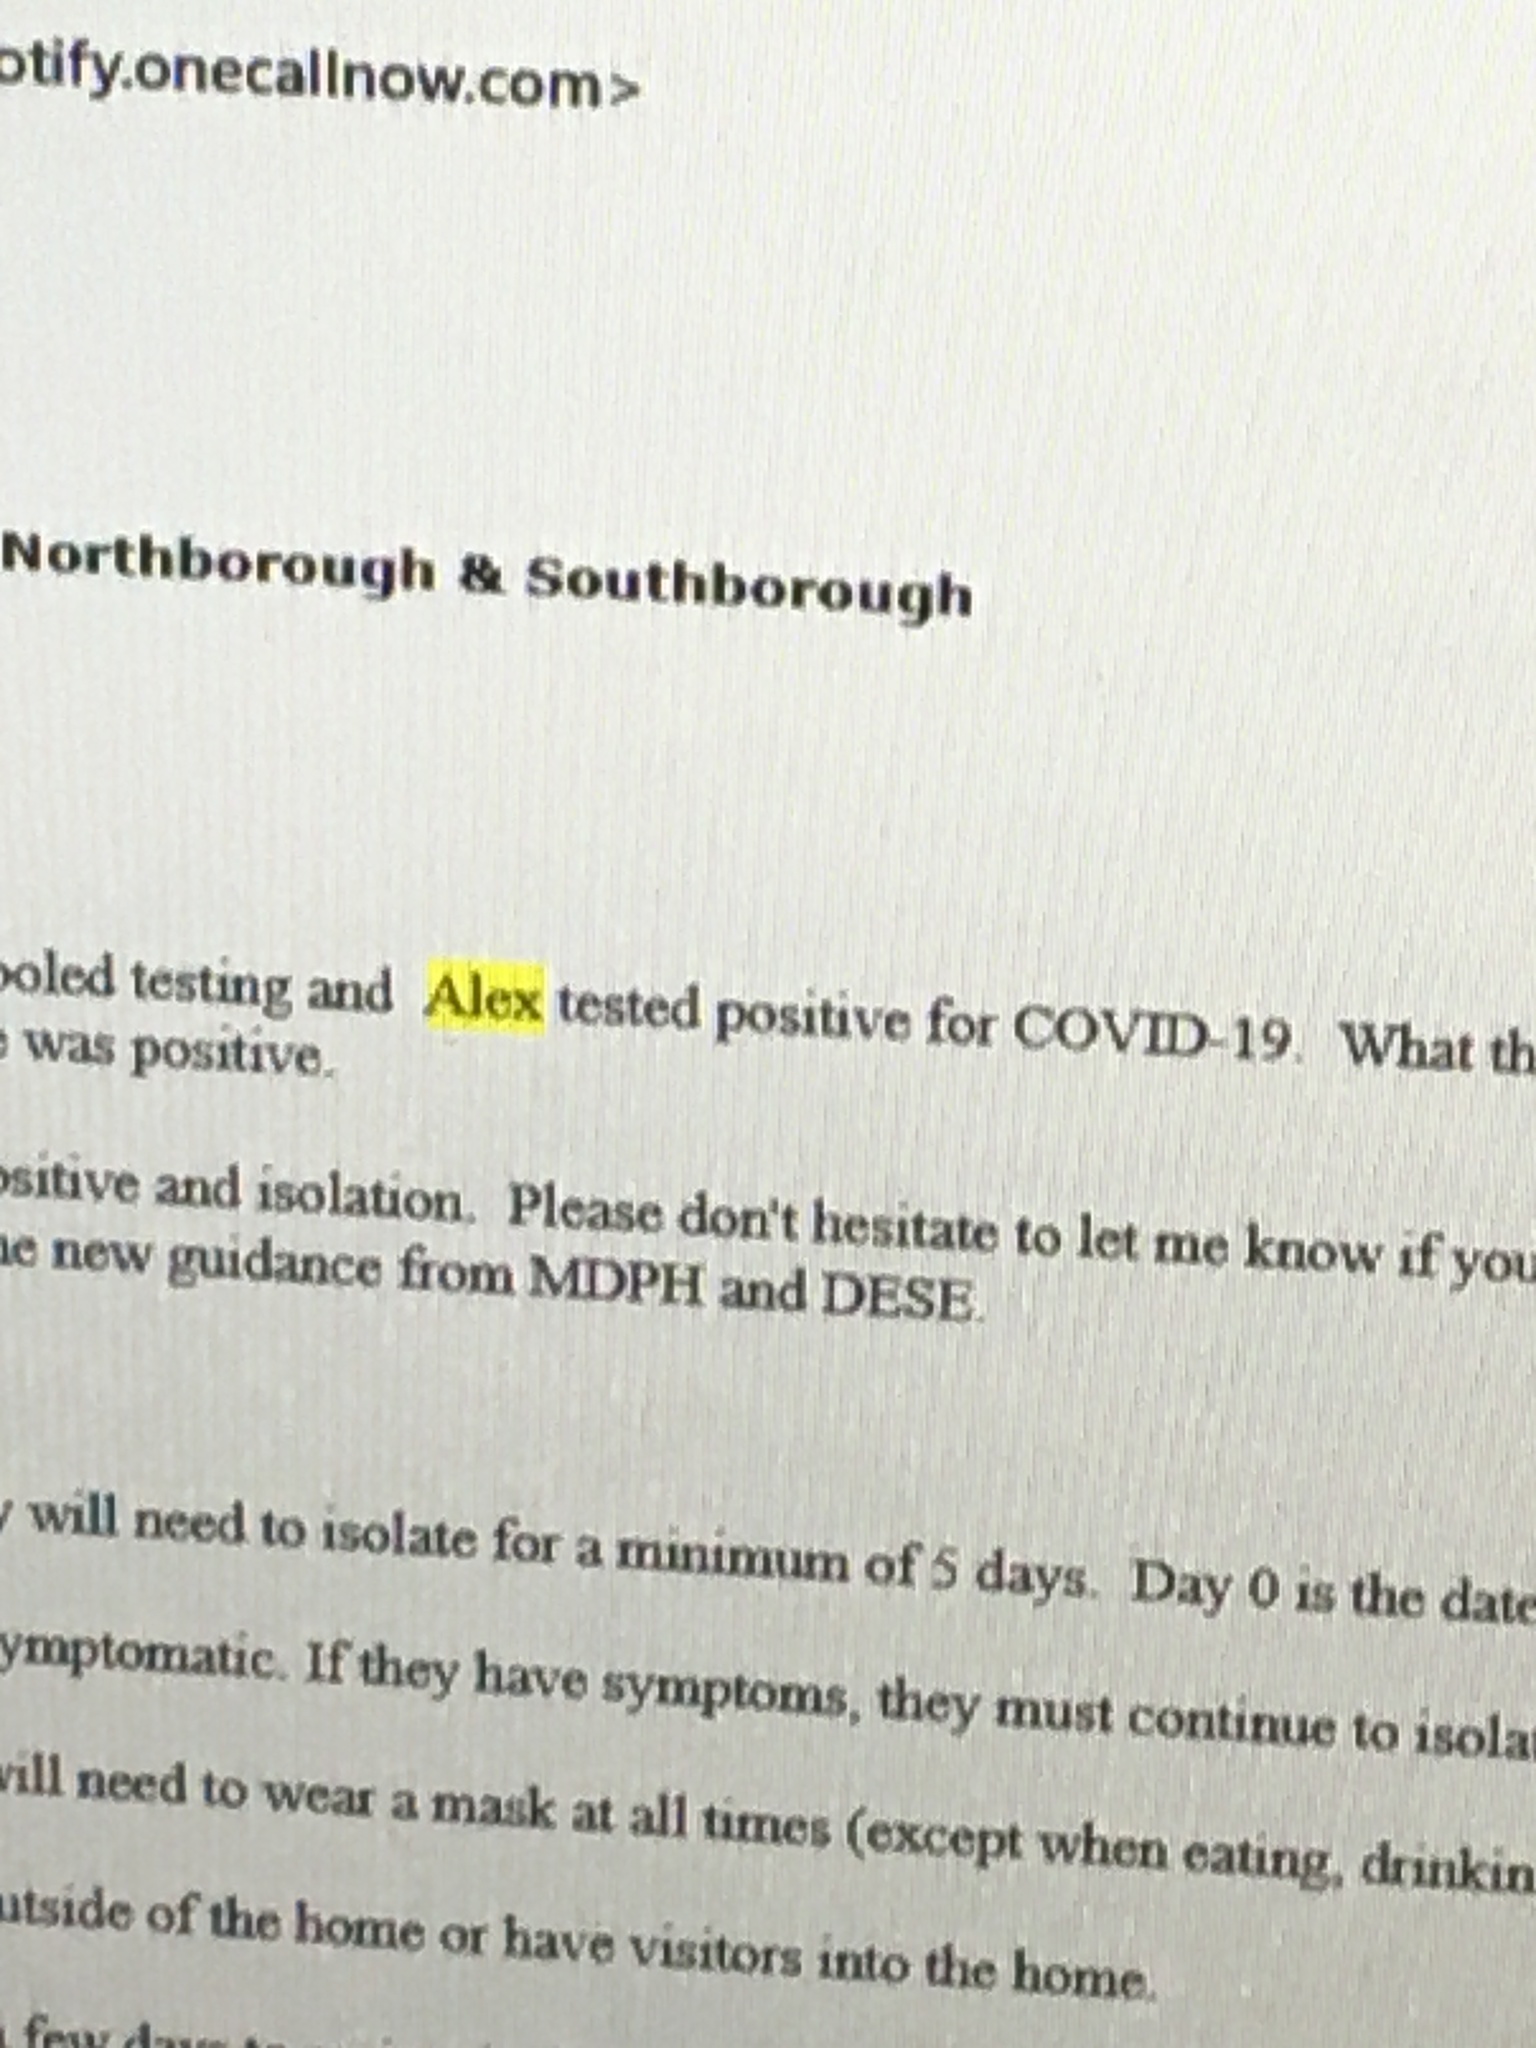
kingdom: Viruses
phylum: Pisuviricota
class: Pisoniviricetes
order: Nidovirales
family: Coronaviridae
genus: Betacoronavirus
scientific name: Betacoronavirus
